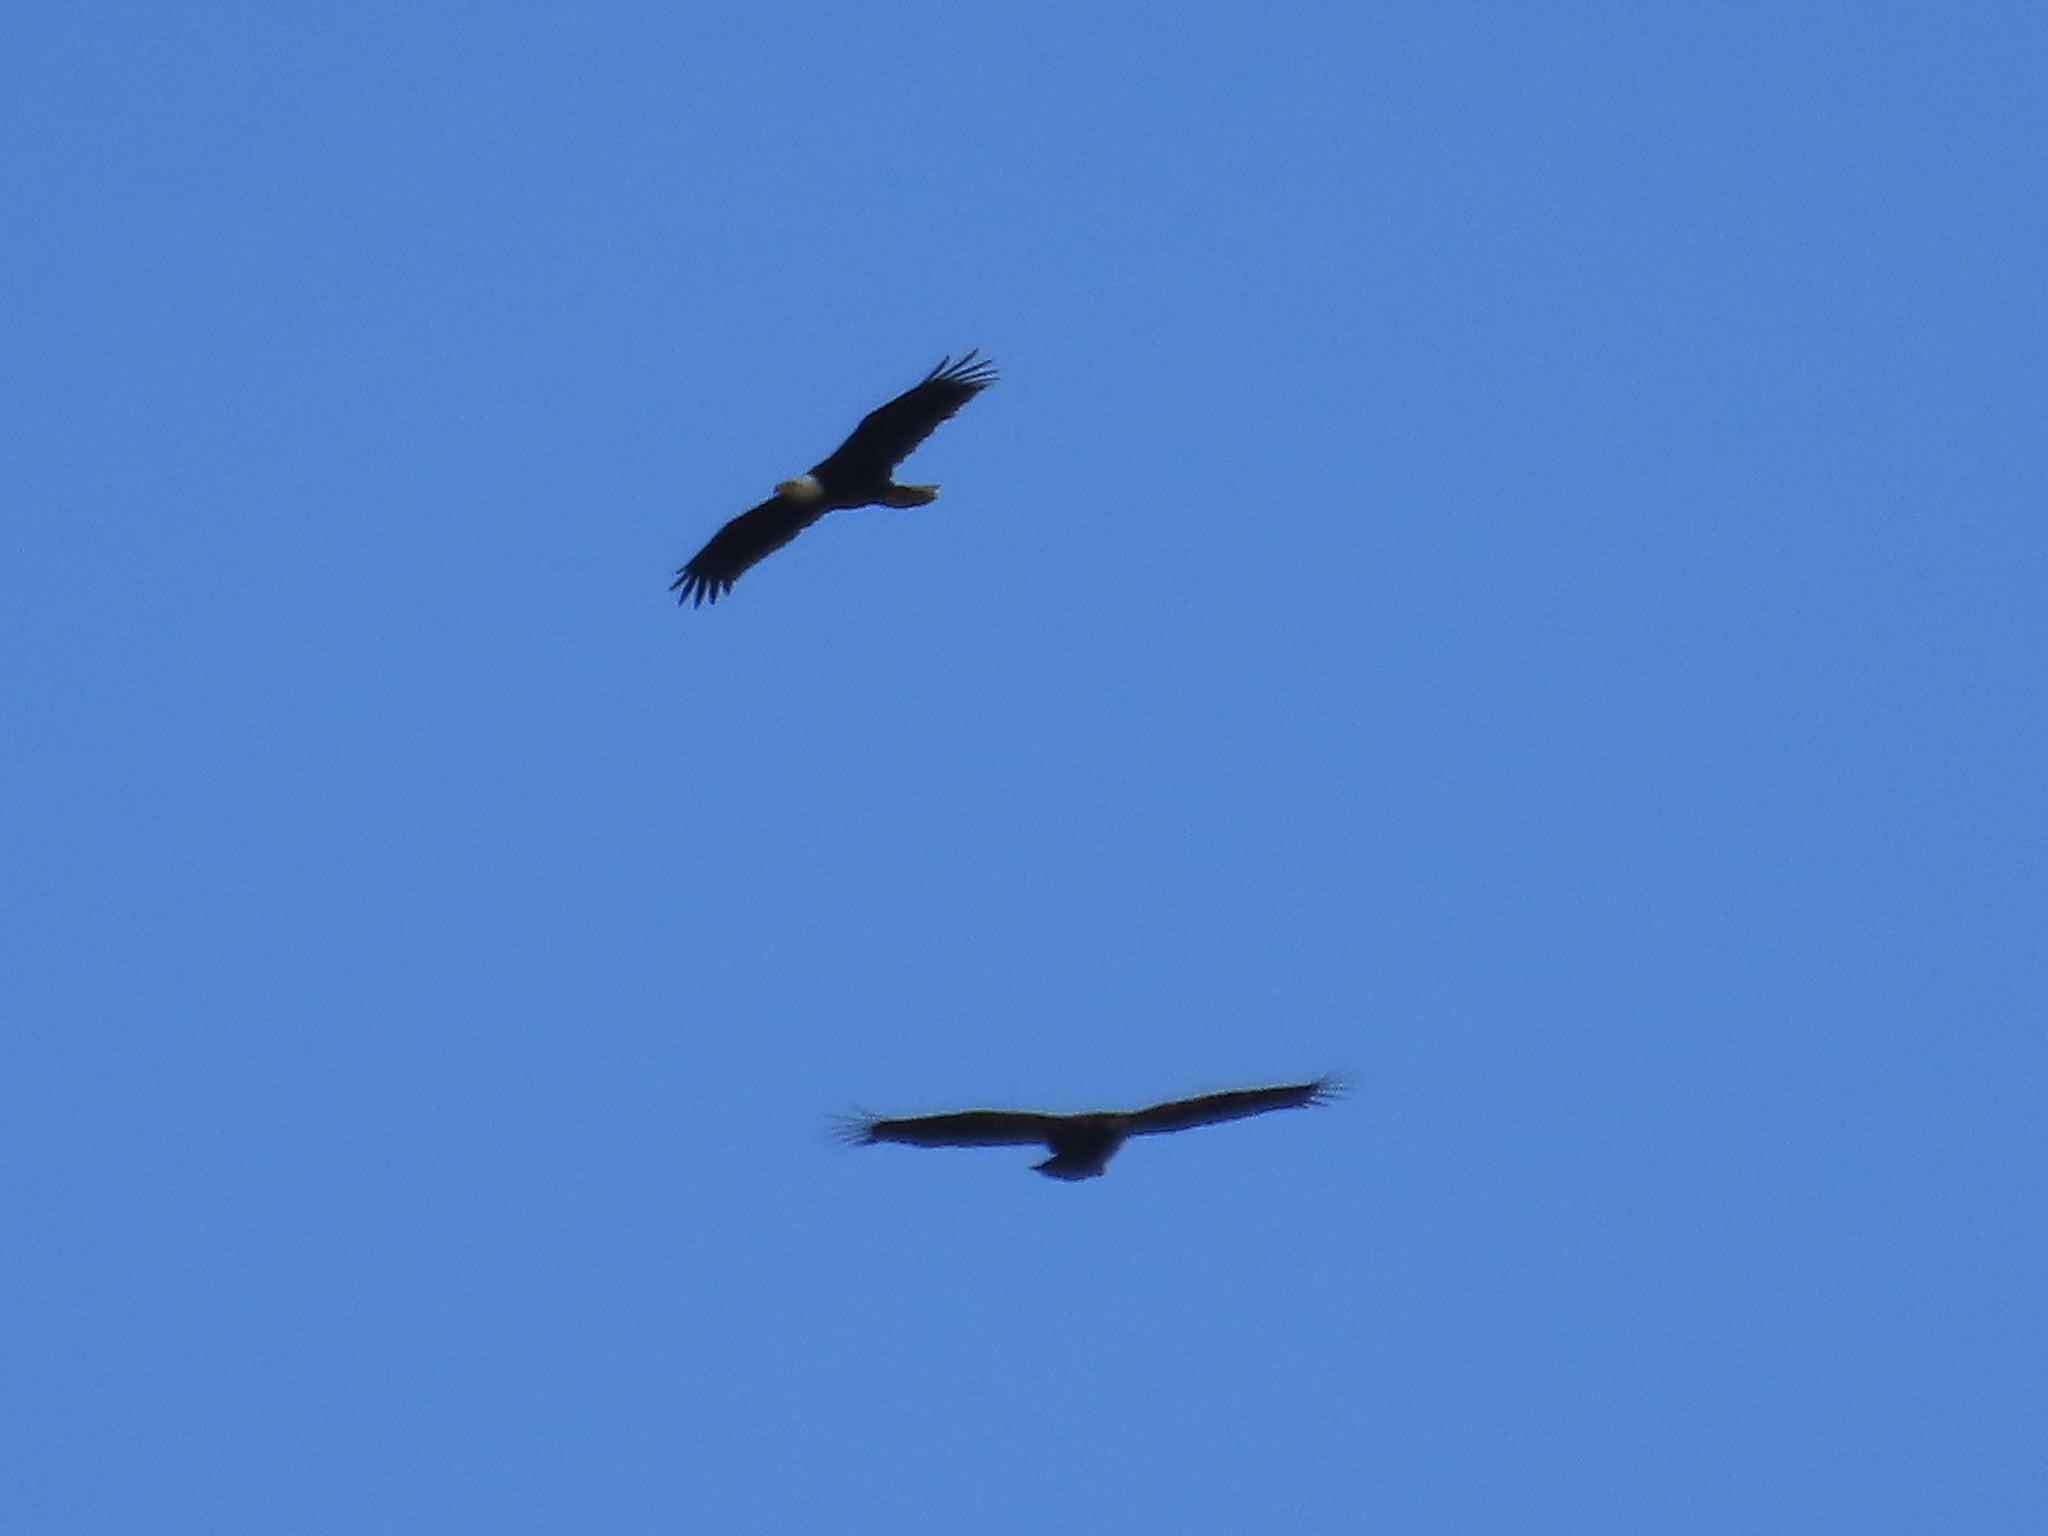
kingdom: Animalia
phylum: Chordata
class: Aves
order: Accipitriformes
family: Accipitridae
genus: Haliaeetus
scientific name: Haliaeetus leucocephalus
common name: Bald eagle
